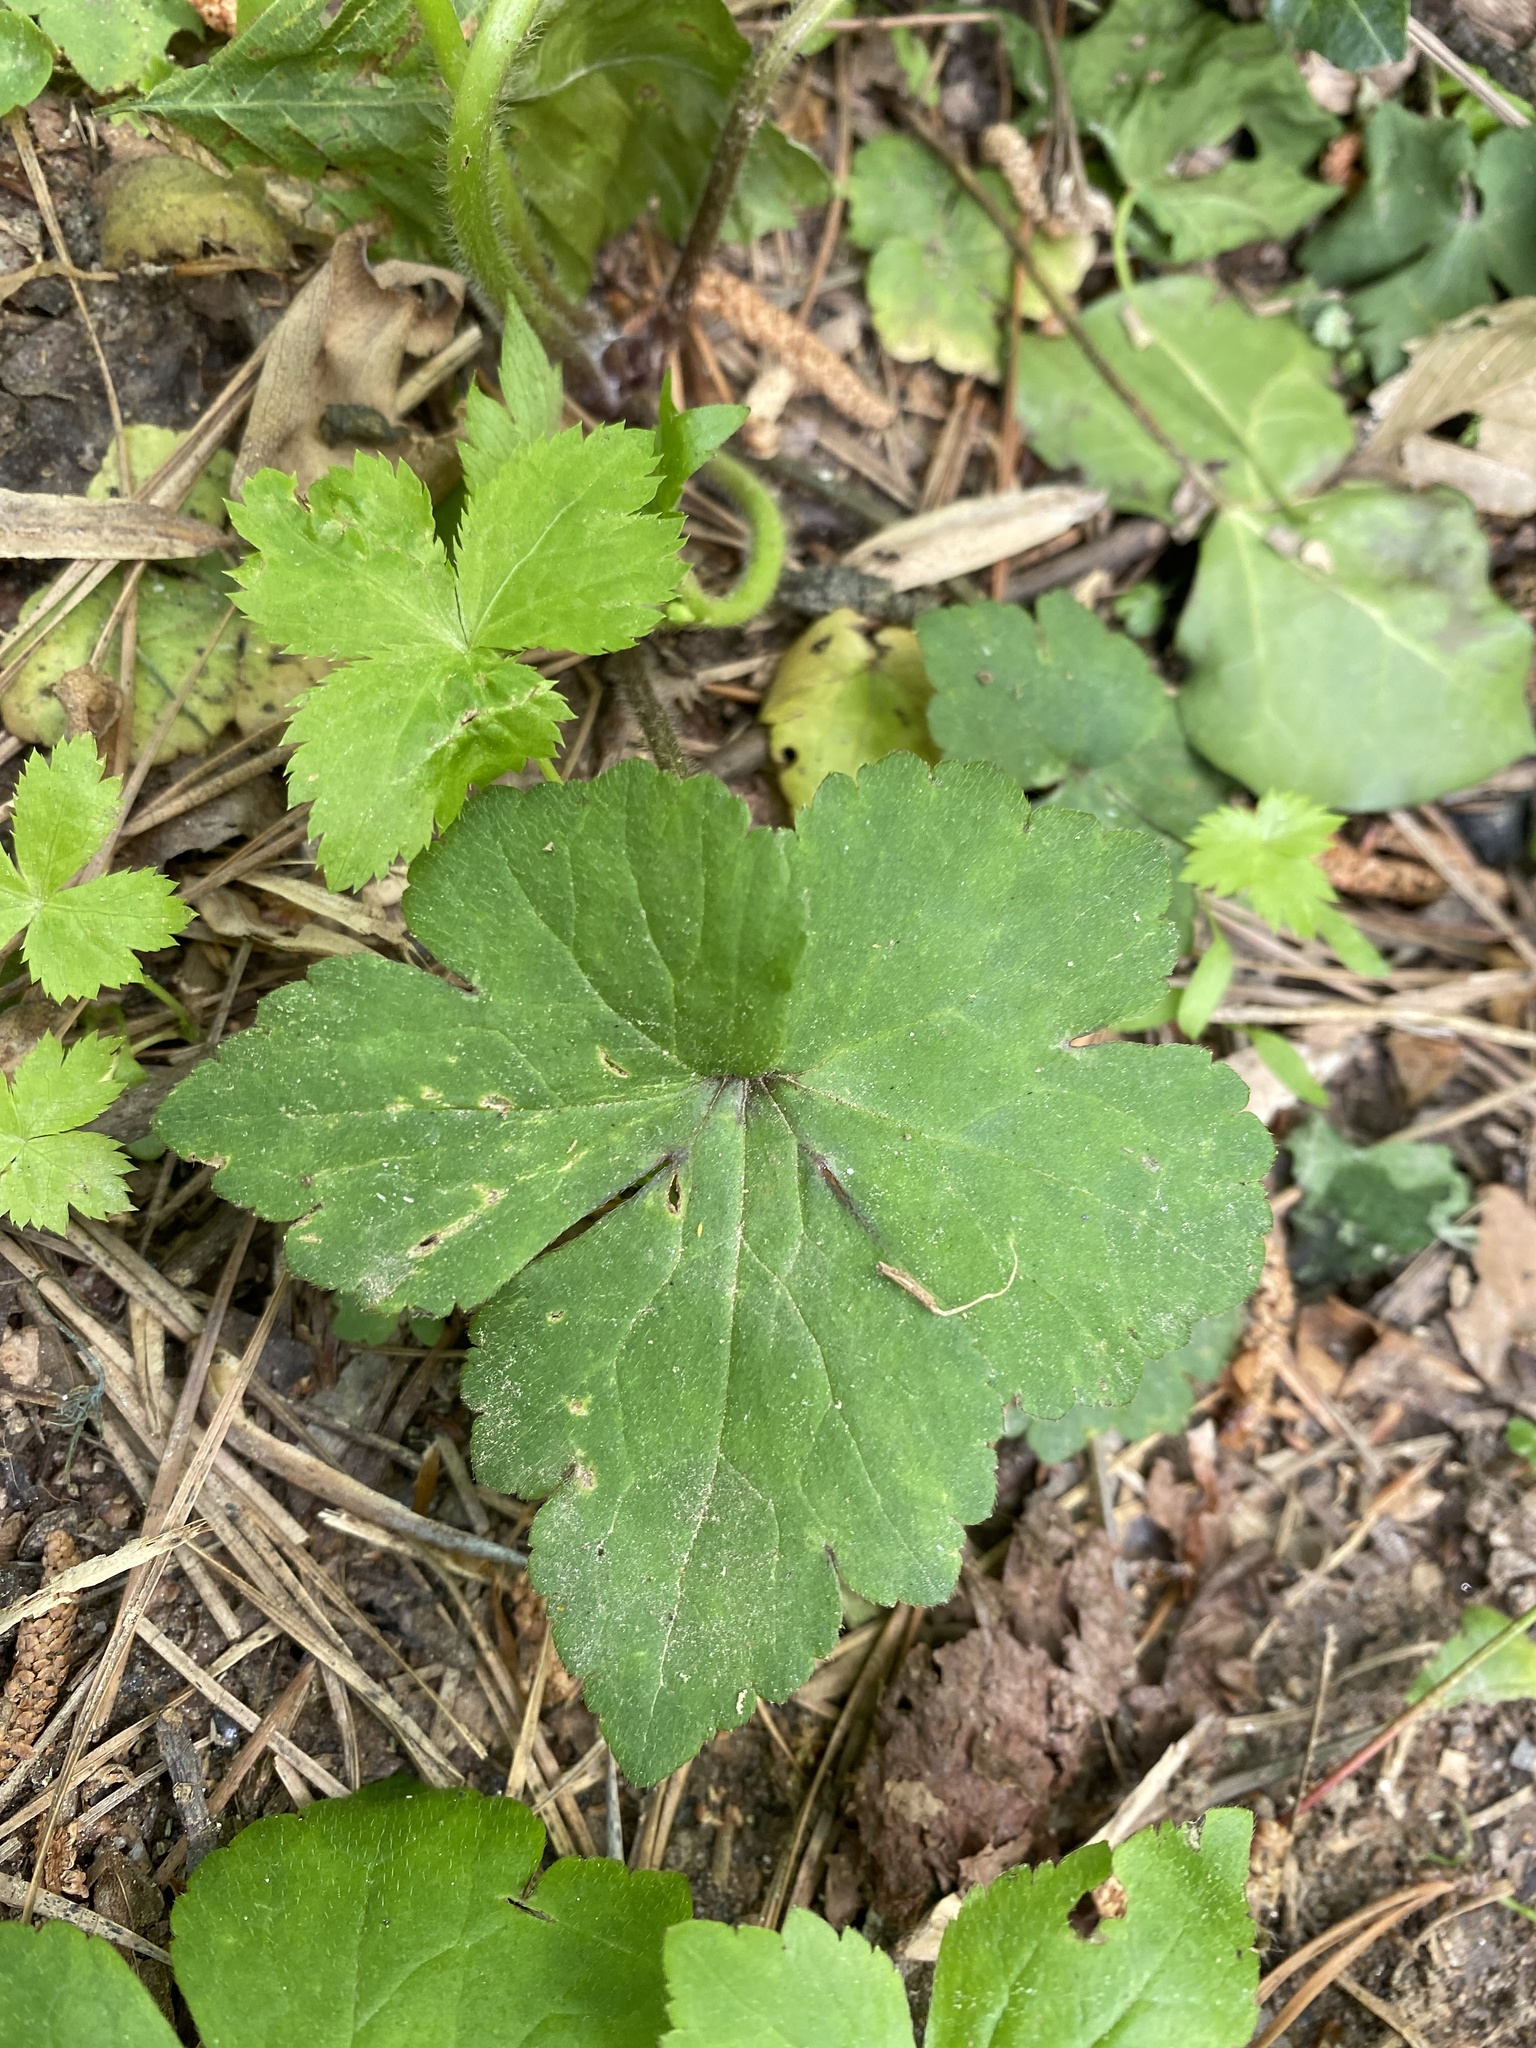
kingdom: Plantae
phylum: Tracheophyta
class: Magnoliopsida
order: Ranunculales
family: Ranunculaceae
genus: Ranunculus
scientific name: Ranunculus recurvatus
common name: Blisterwort
